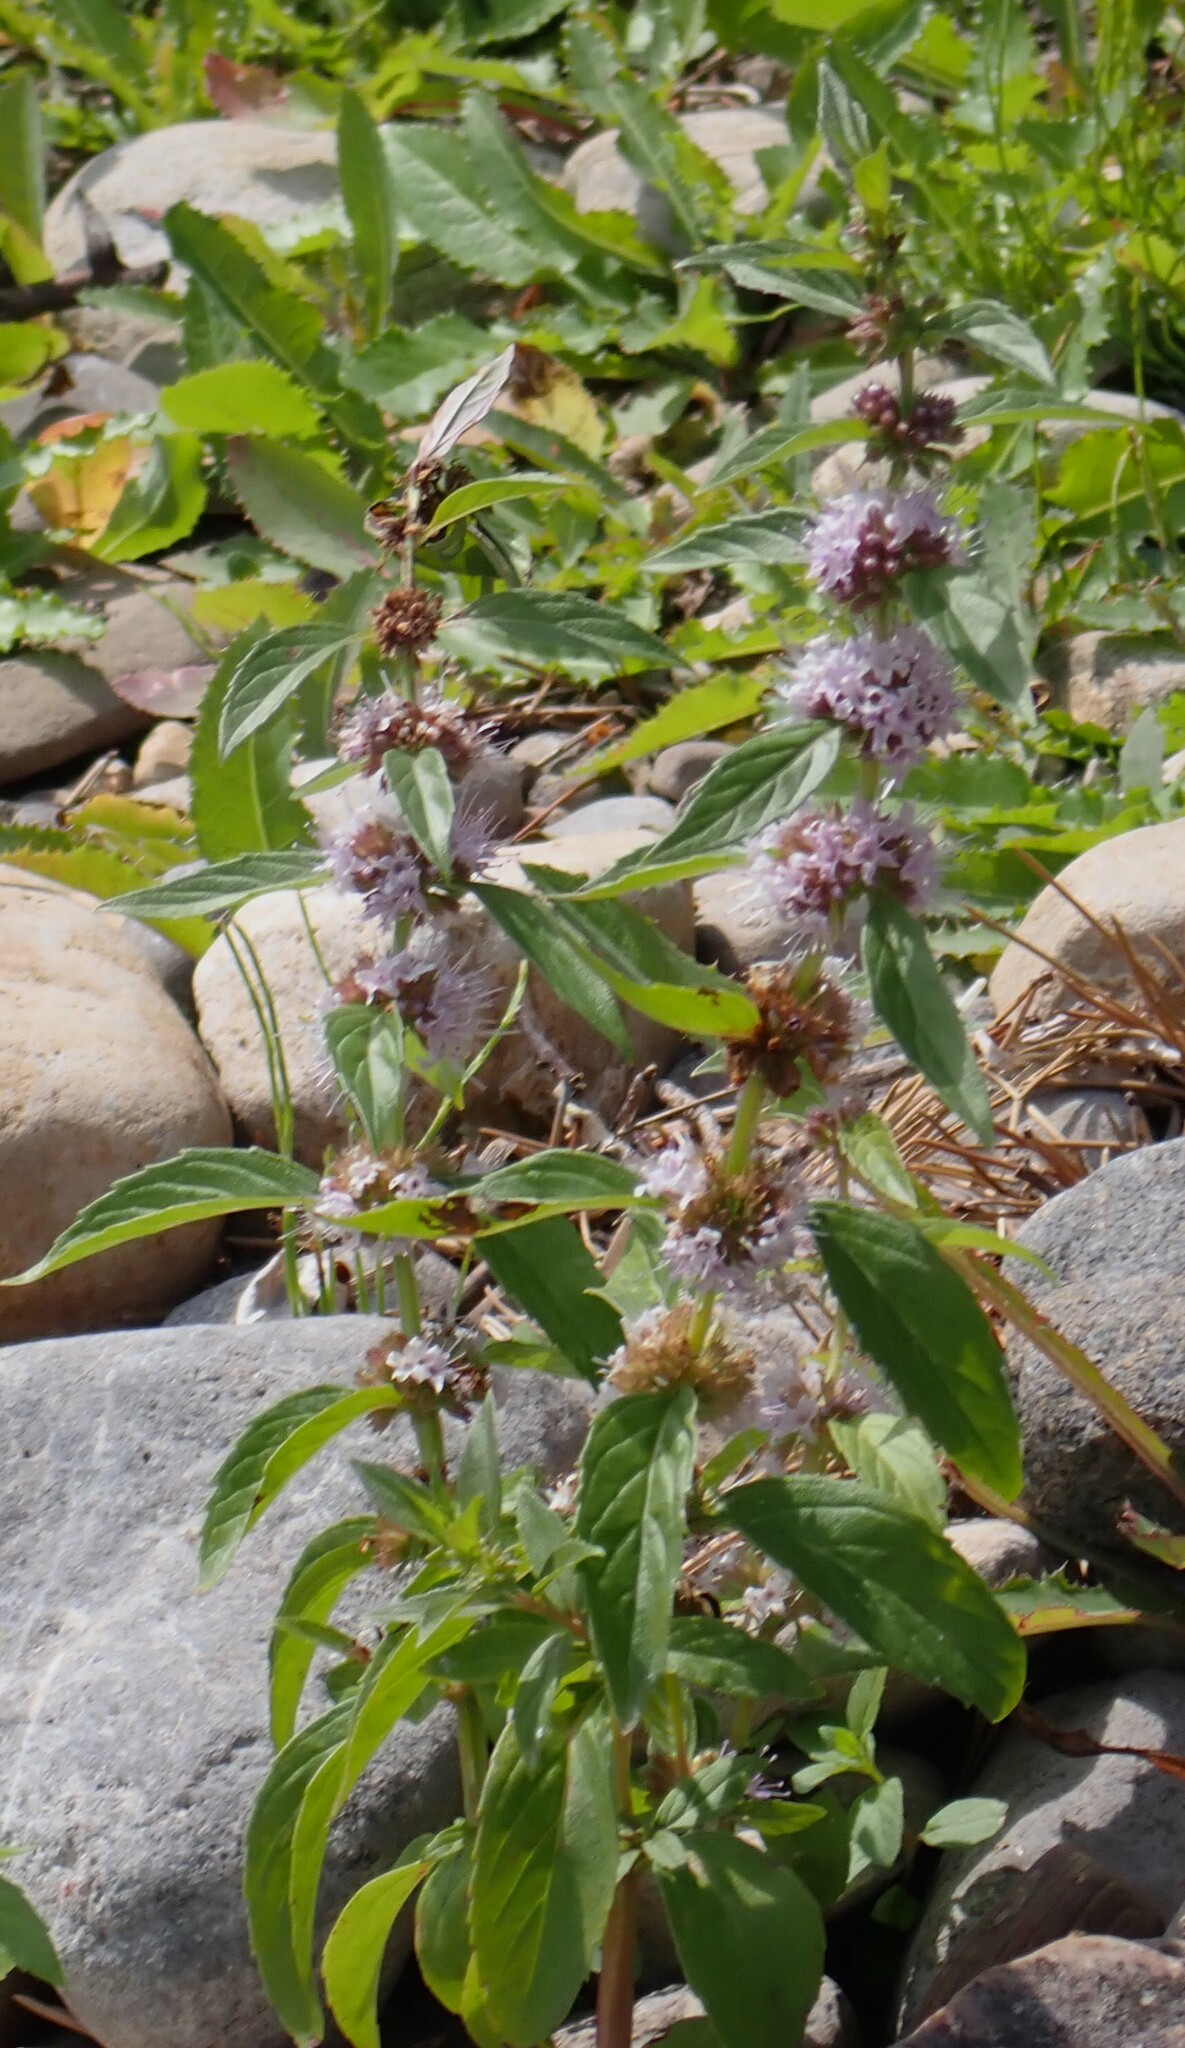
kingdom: Plantae
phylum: Tracheophyta
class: Magnoliopsida
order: Lamiales
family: Lamiaceae
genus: Mentha
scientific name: Mentha canadensis
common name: American corn mint
